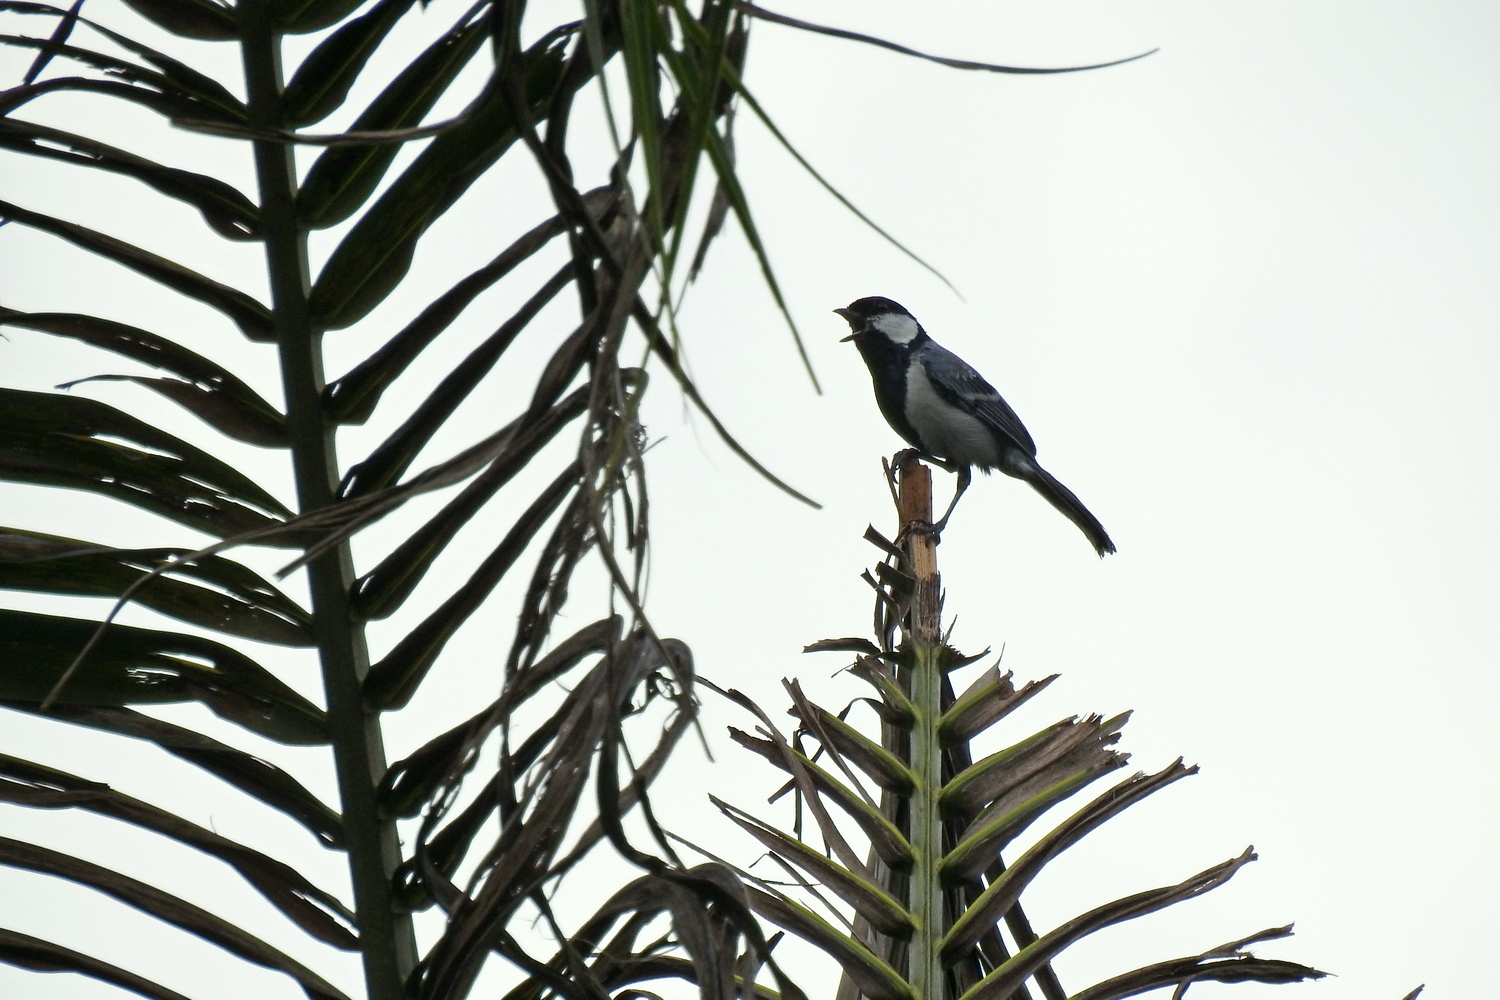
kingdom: Animalia
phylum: Chordata
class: Aves
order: Passeriformes
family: Paridae
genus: Parus
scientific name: Parus cinereus
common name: Cinereous tit
